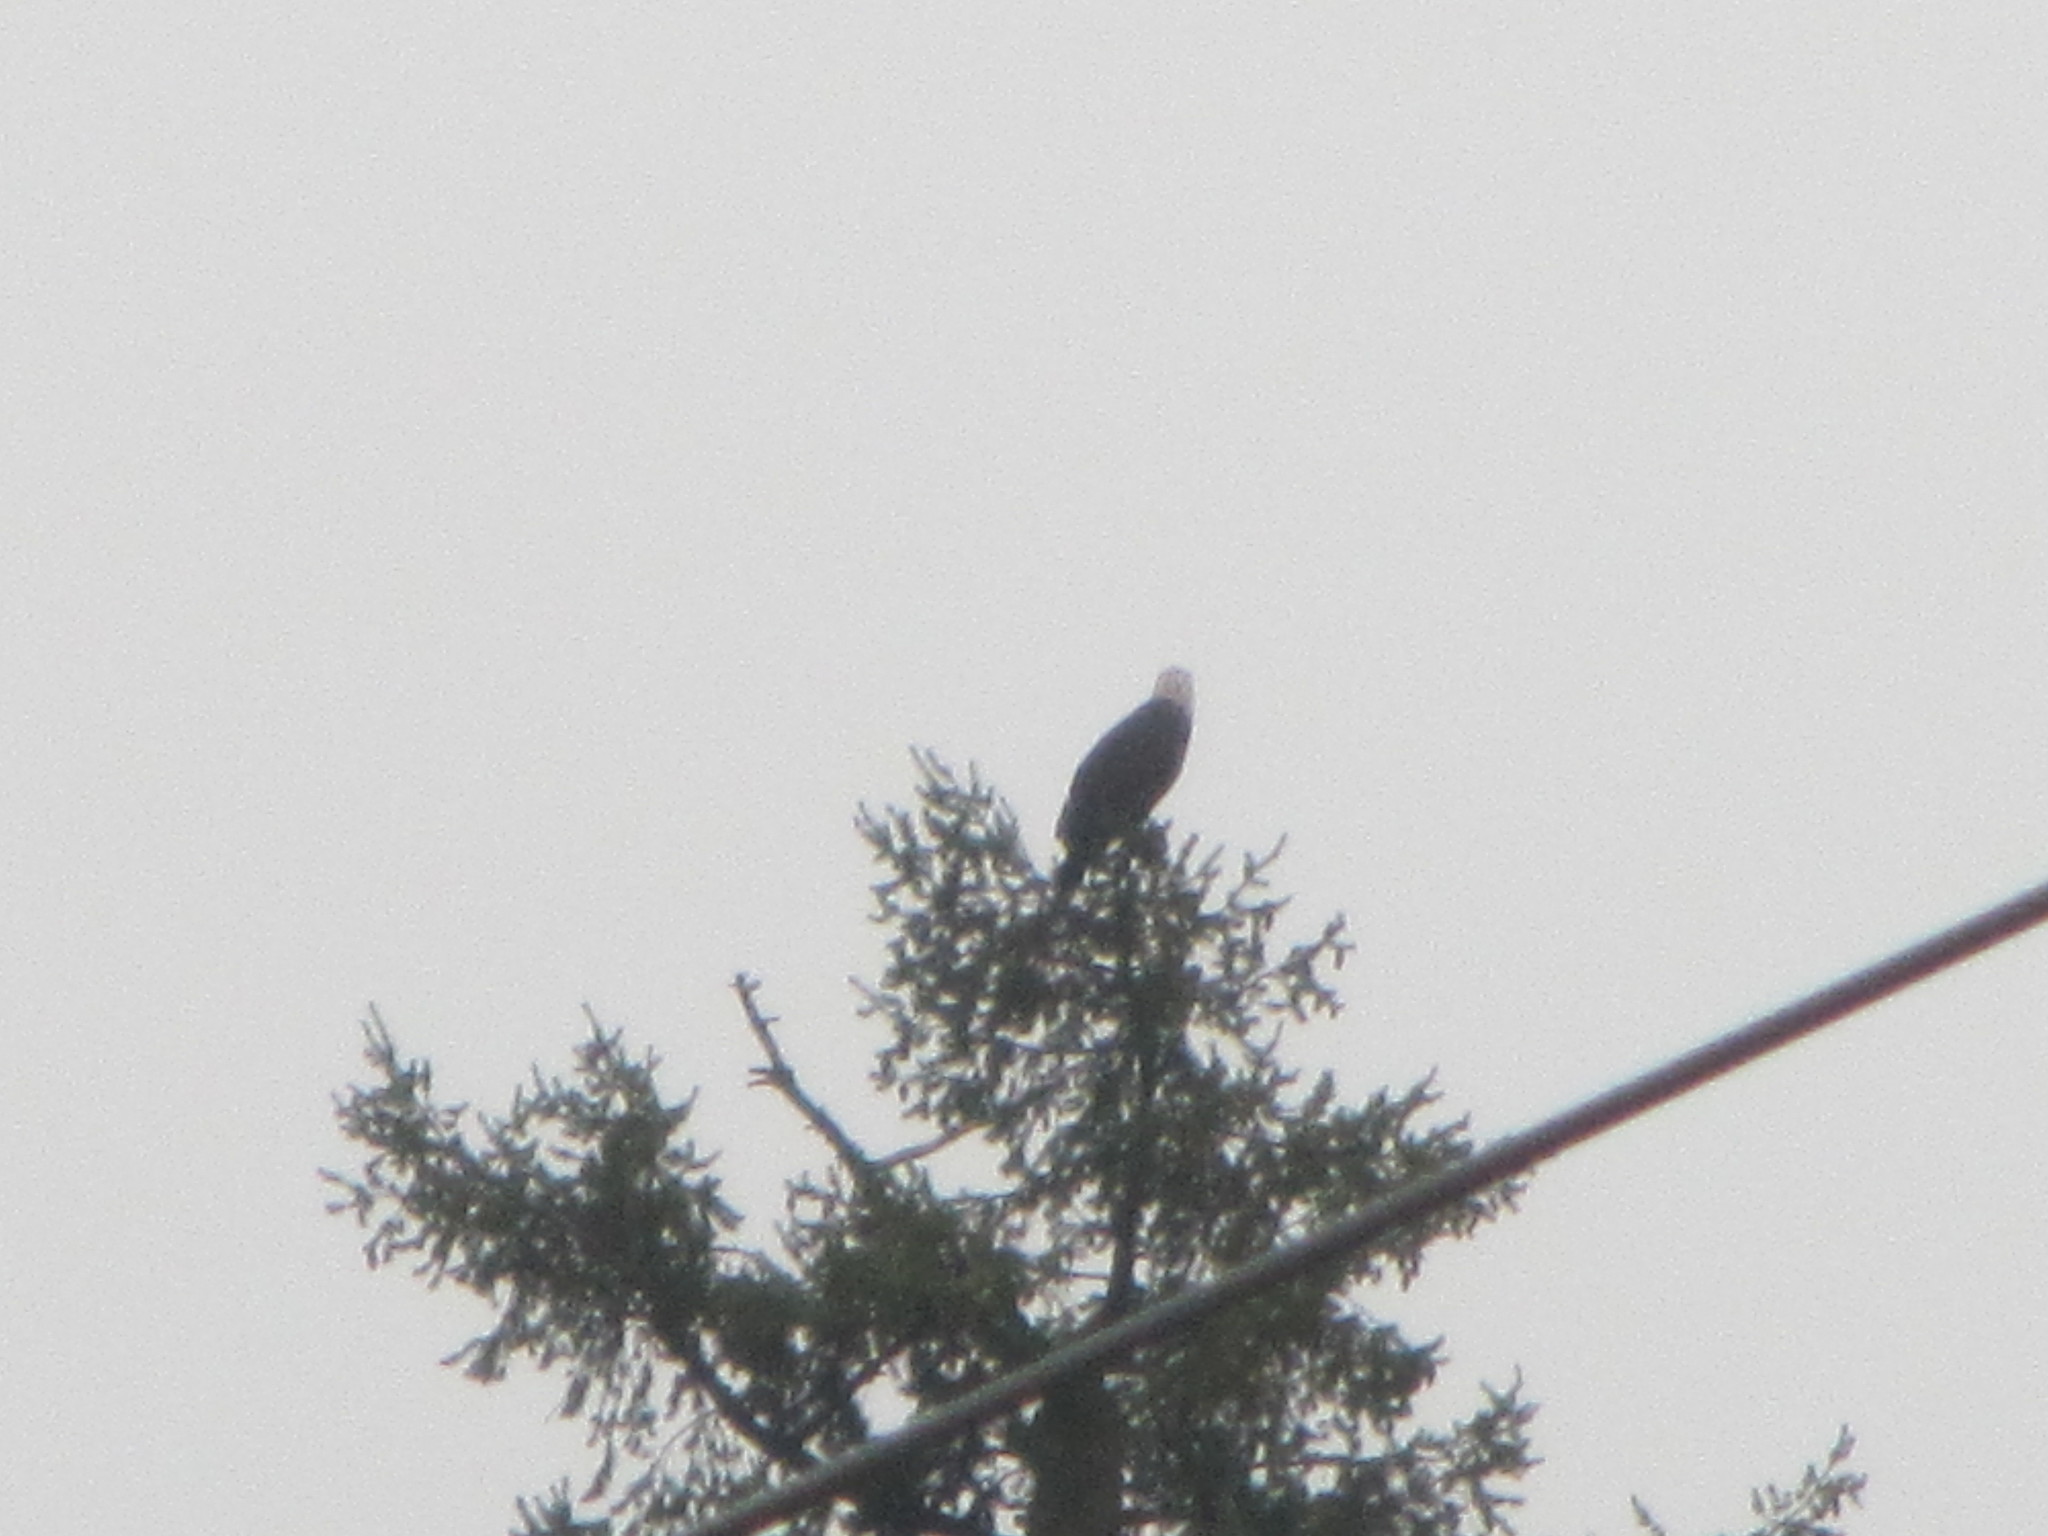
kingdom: Animalia
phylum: Chordata
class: Aves
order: Accipitriformes
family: Accipitridae
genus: Haliaeetus
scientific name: Haliaeetus leucocephalus
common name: Bald eagle
